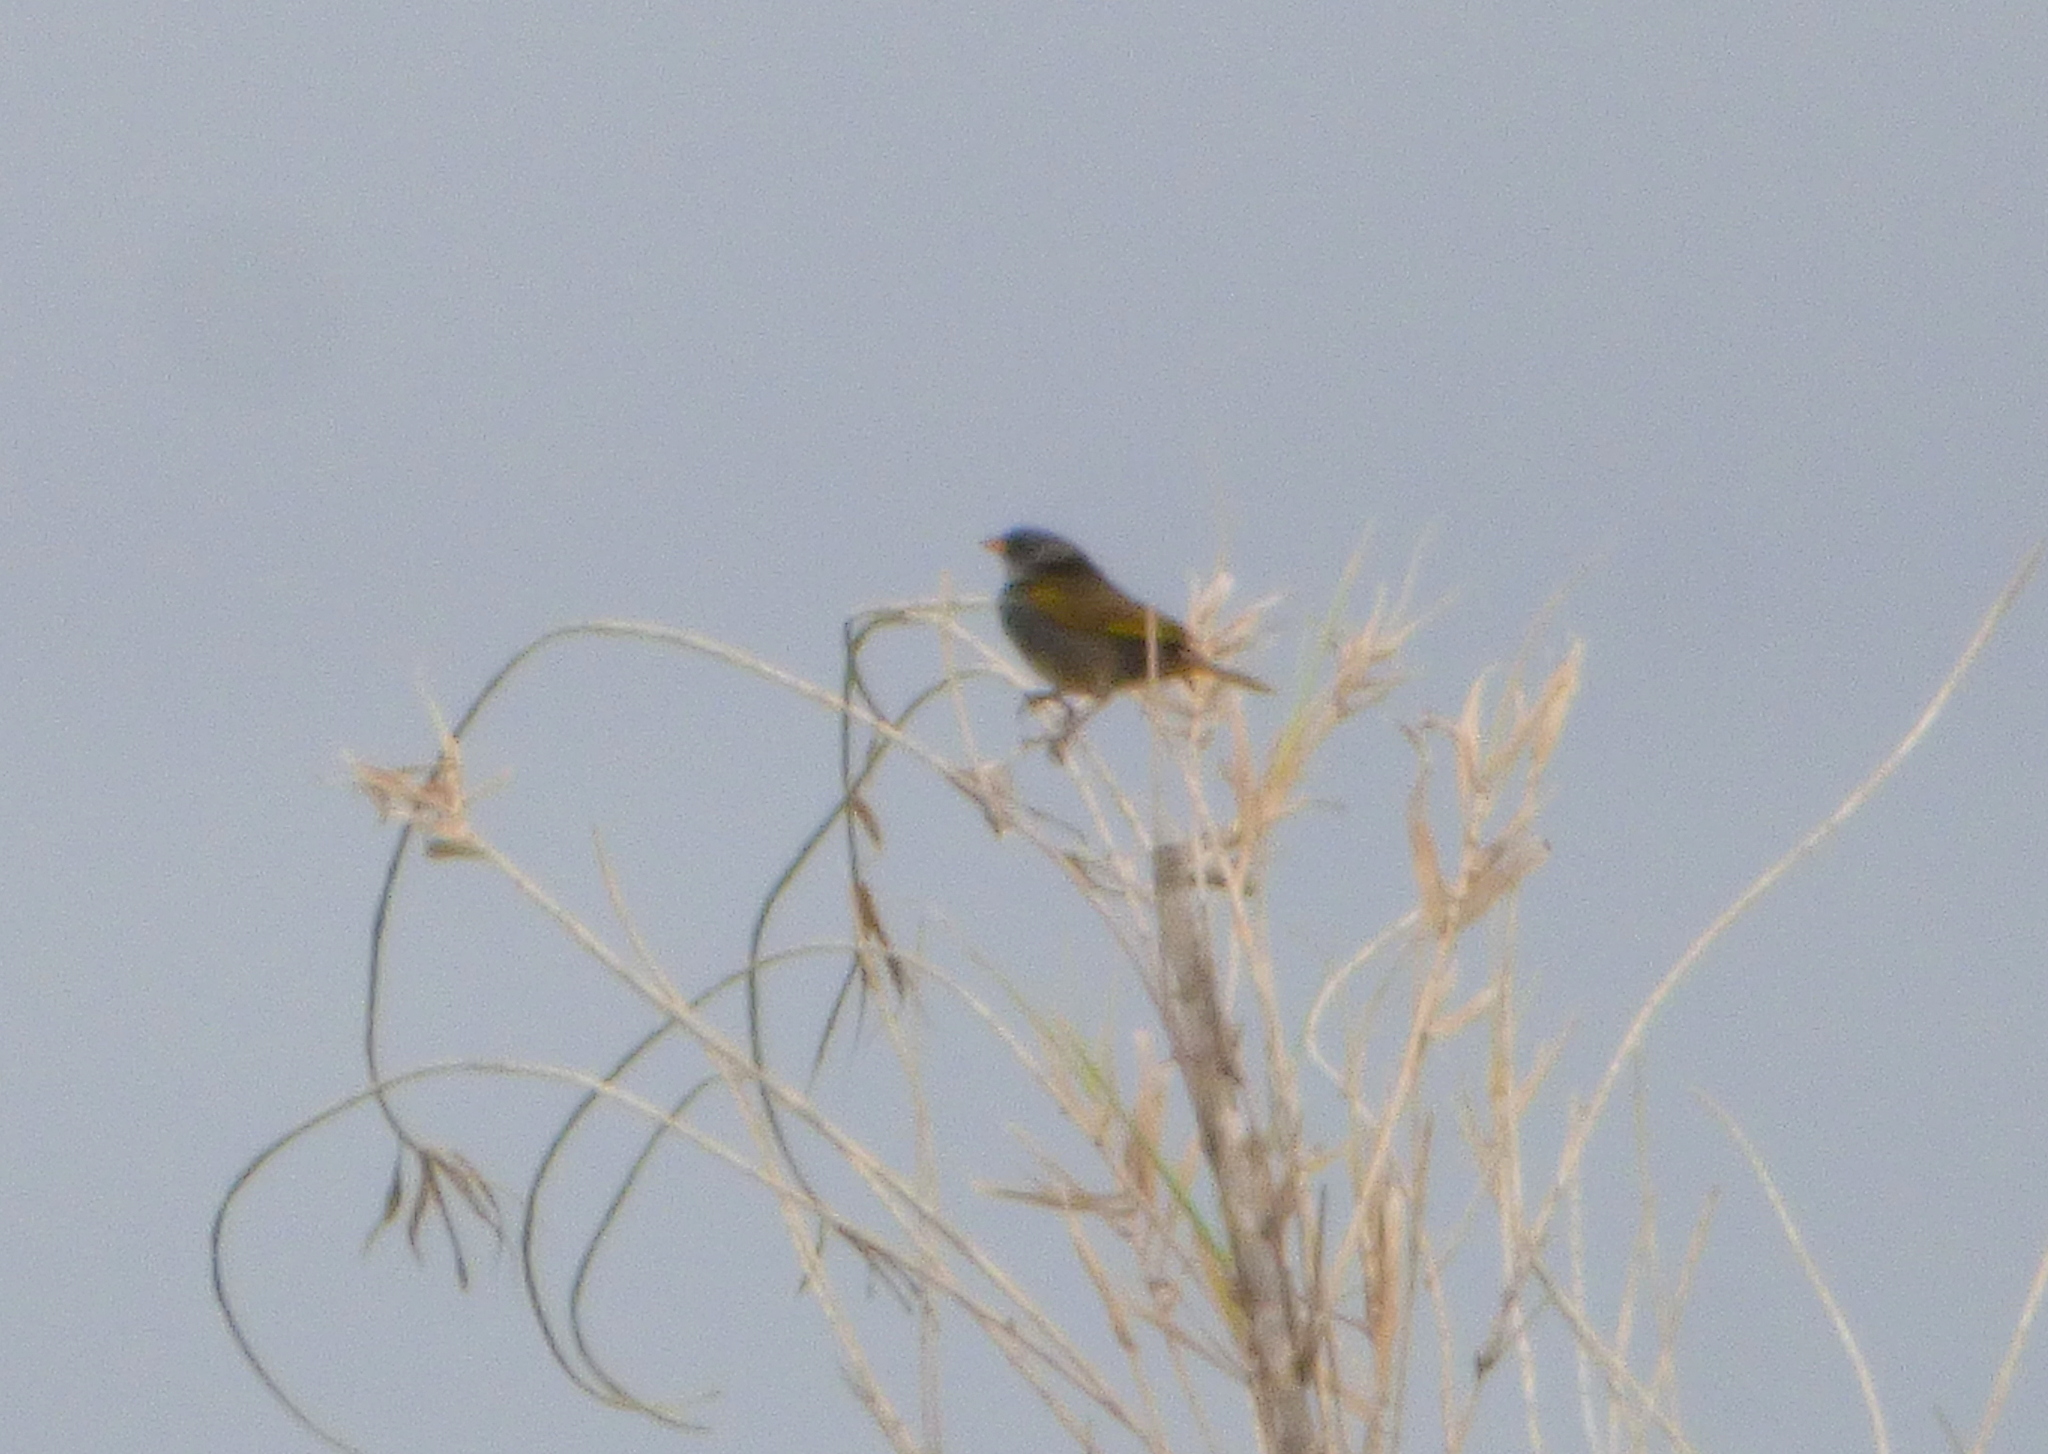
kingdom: Animalia
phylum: Chordata
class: Aves
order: Passeriformes
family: Thraupidae
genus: Embernagra
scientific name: Embernagra platensis
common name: Pampa finch
